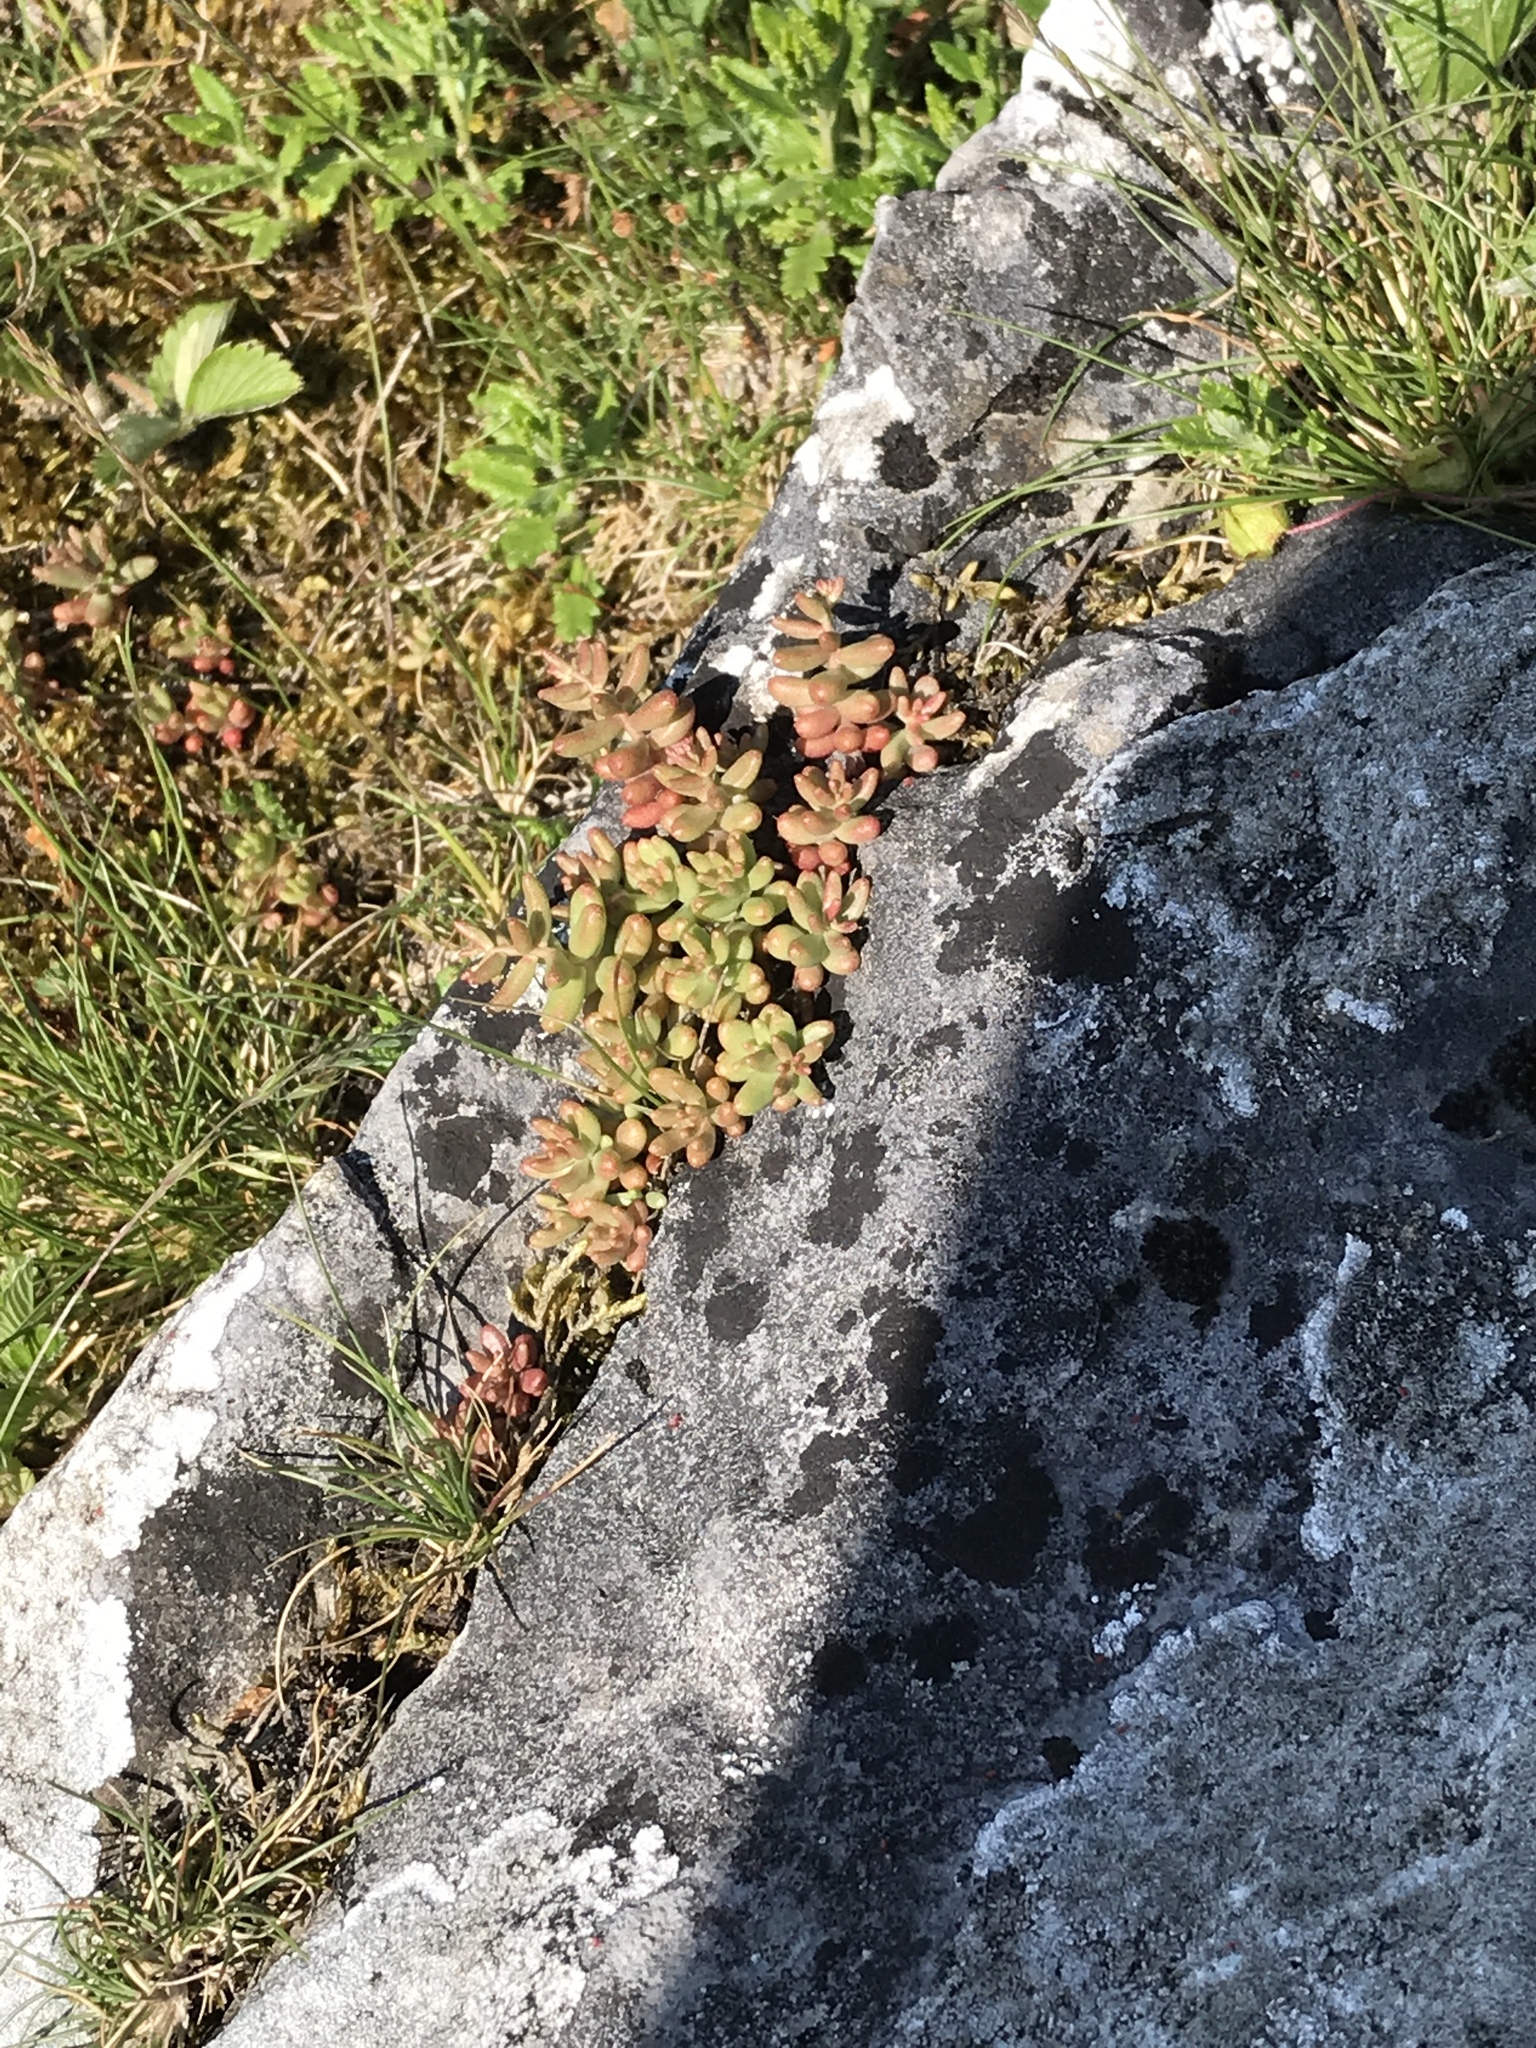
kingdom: Plantae
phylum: Tracheophyta
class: Magnoliopsida
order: Saxifragales
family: Crassulaceae
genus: Sedum
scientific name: Sedum album
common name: White stonecrop
